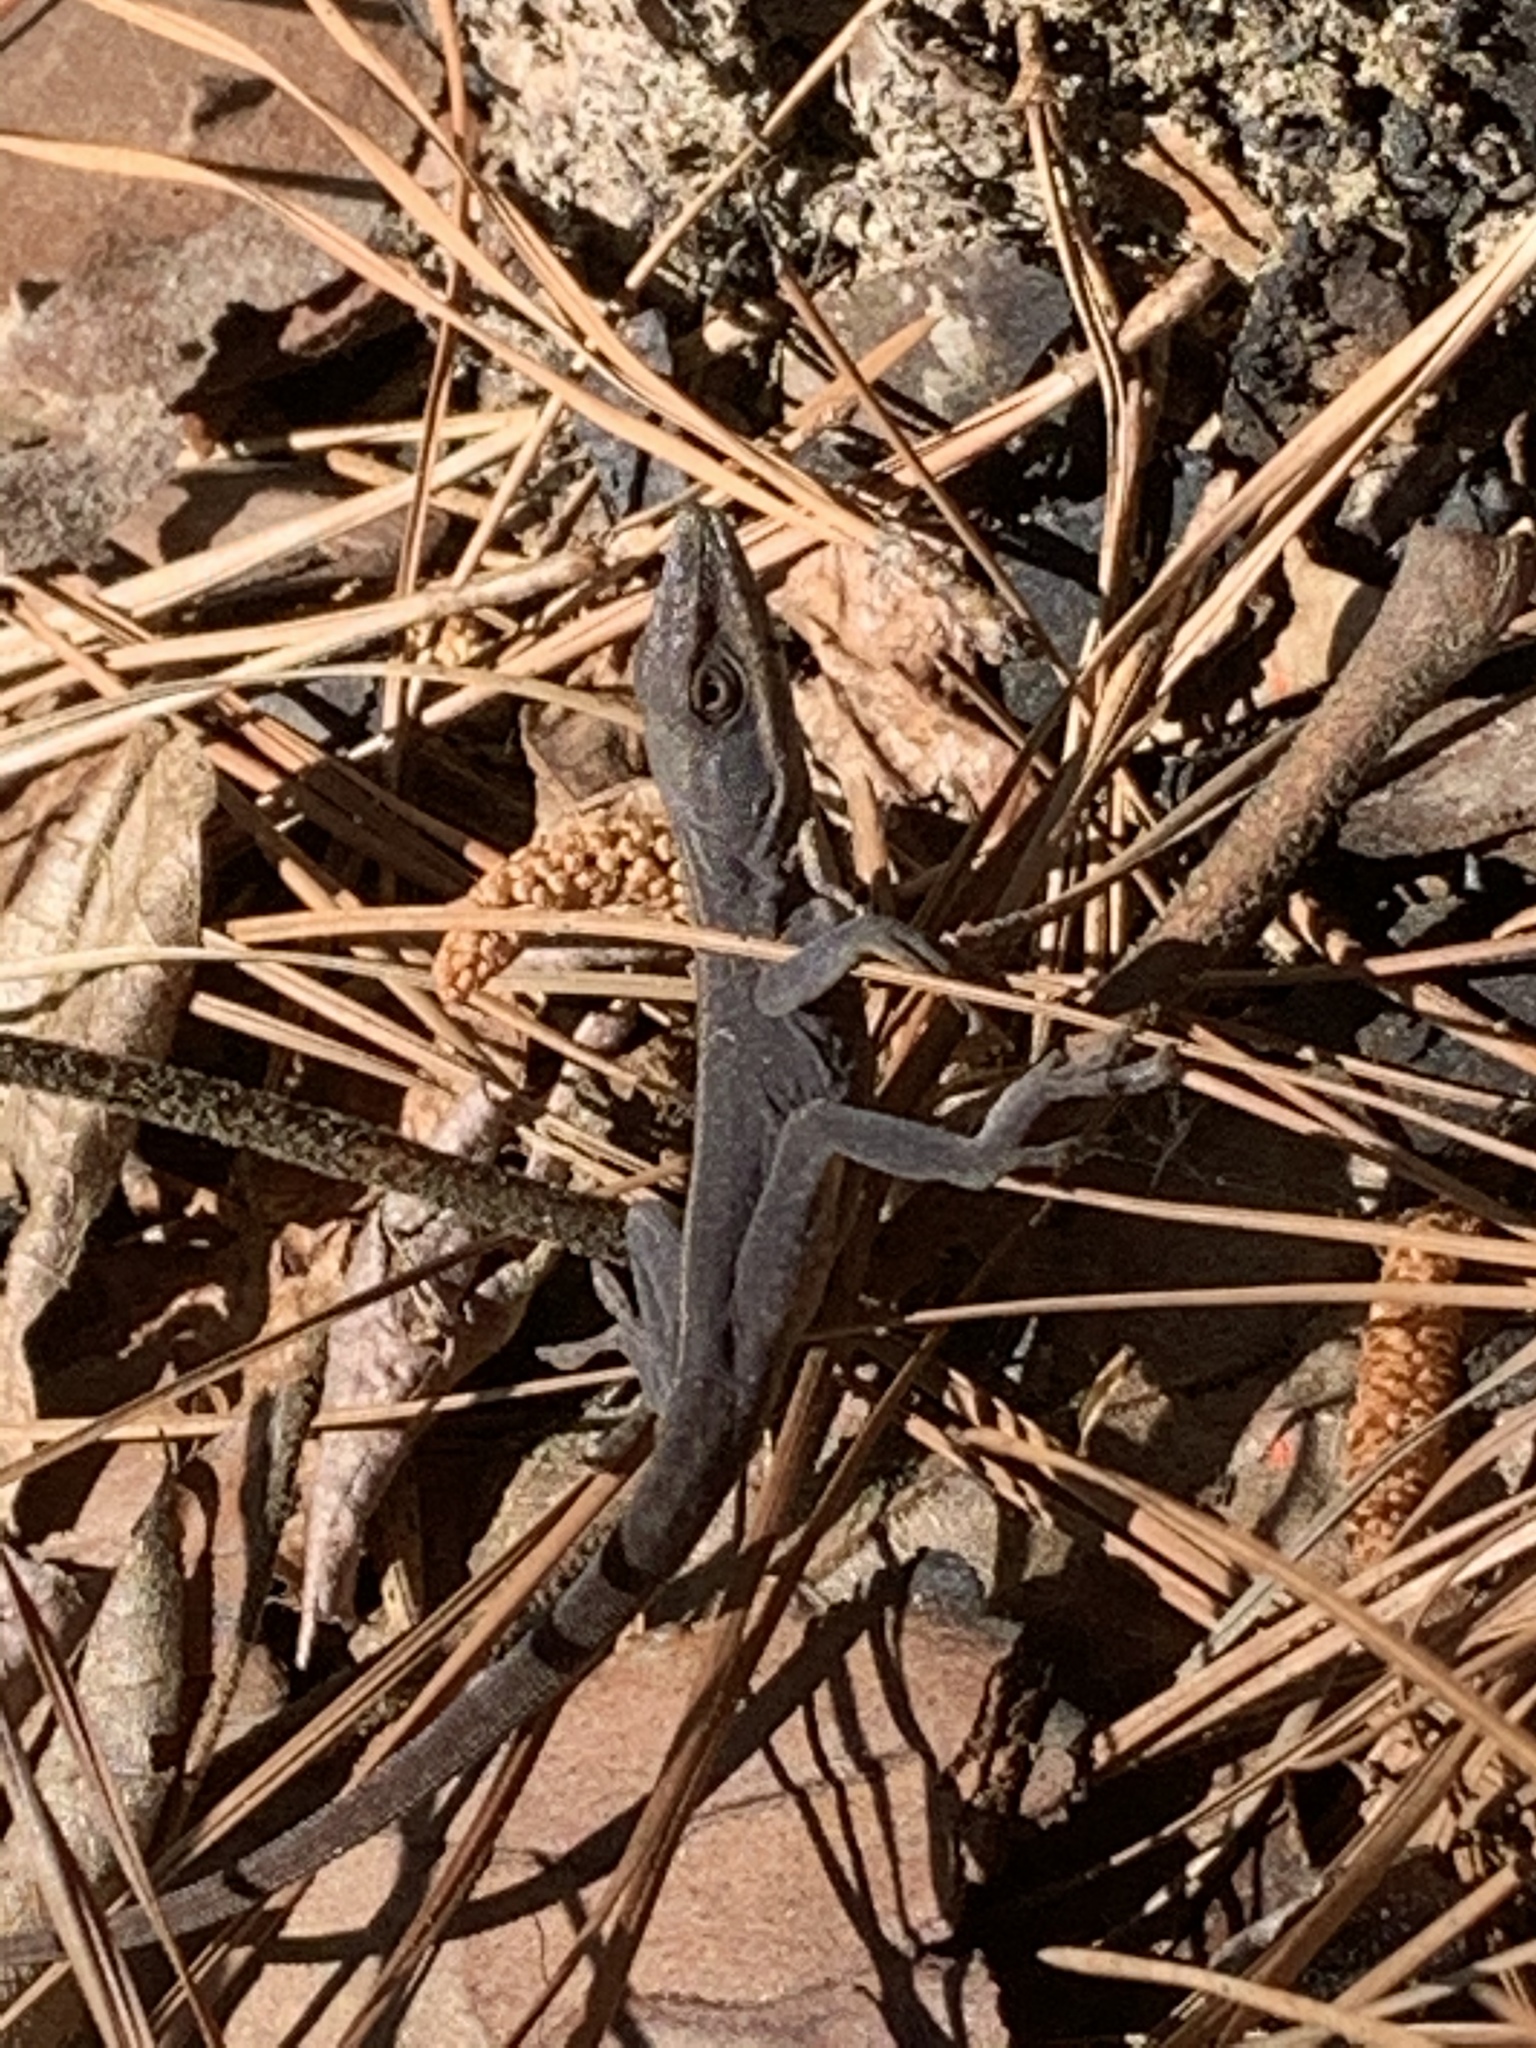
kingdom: Animalia
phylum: Chordata
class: Squamata
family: Dactyloidae
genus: Anolis
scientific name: Anolis carolinensis
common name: Green anole
